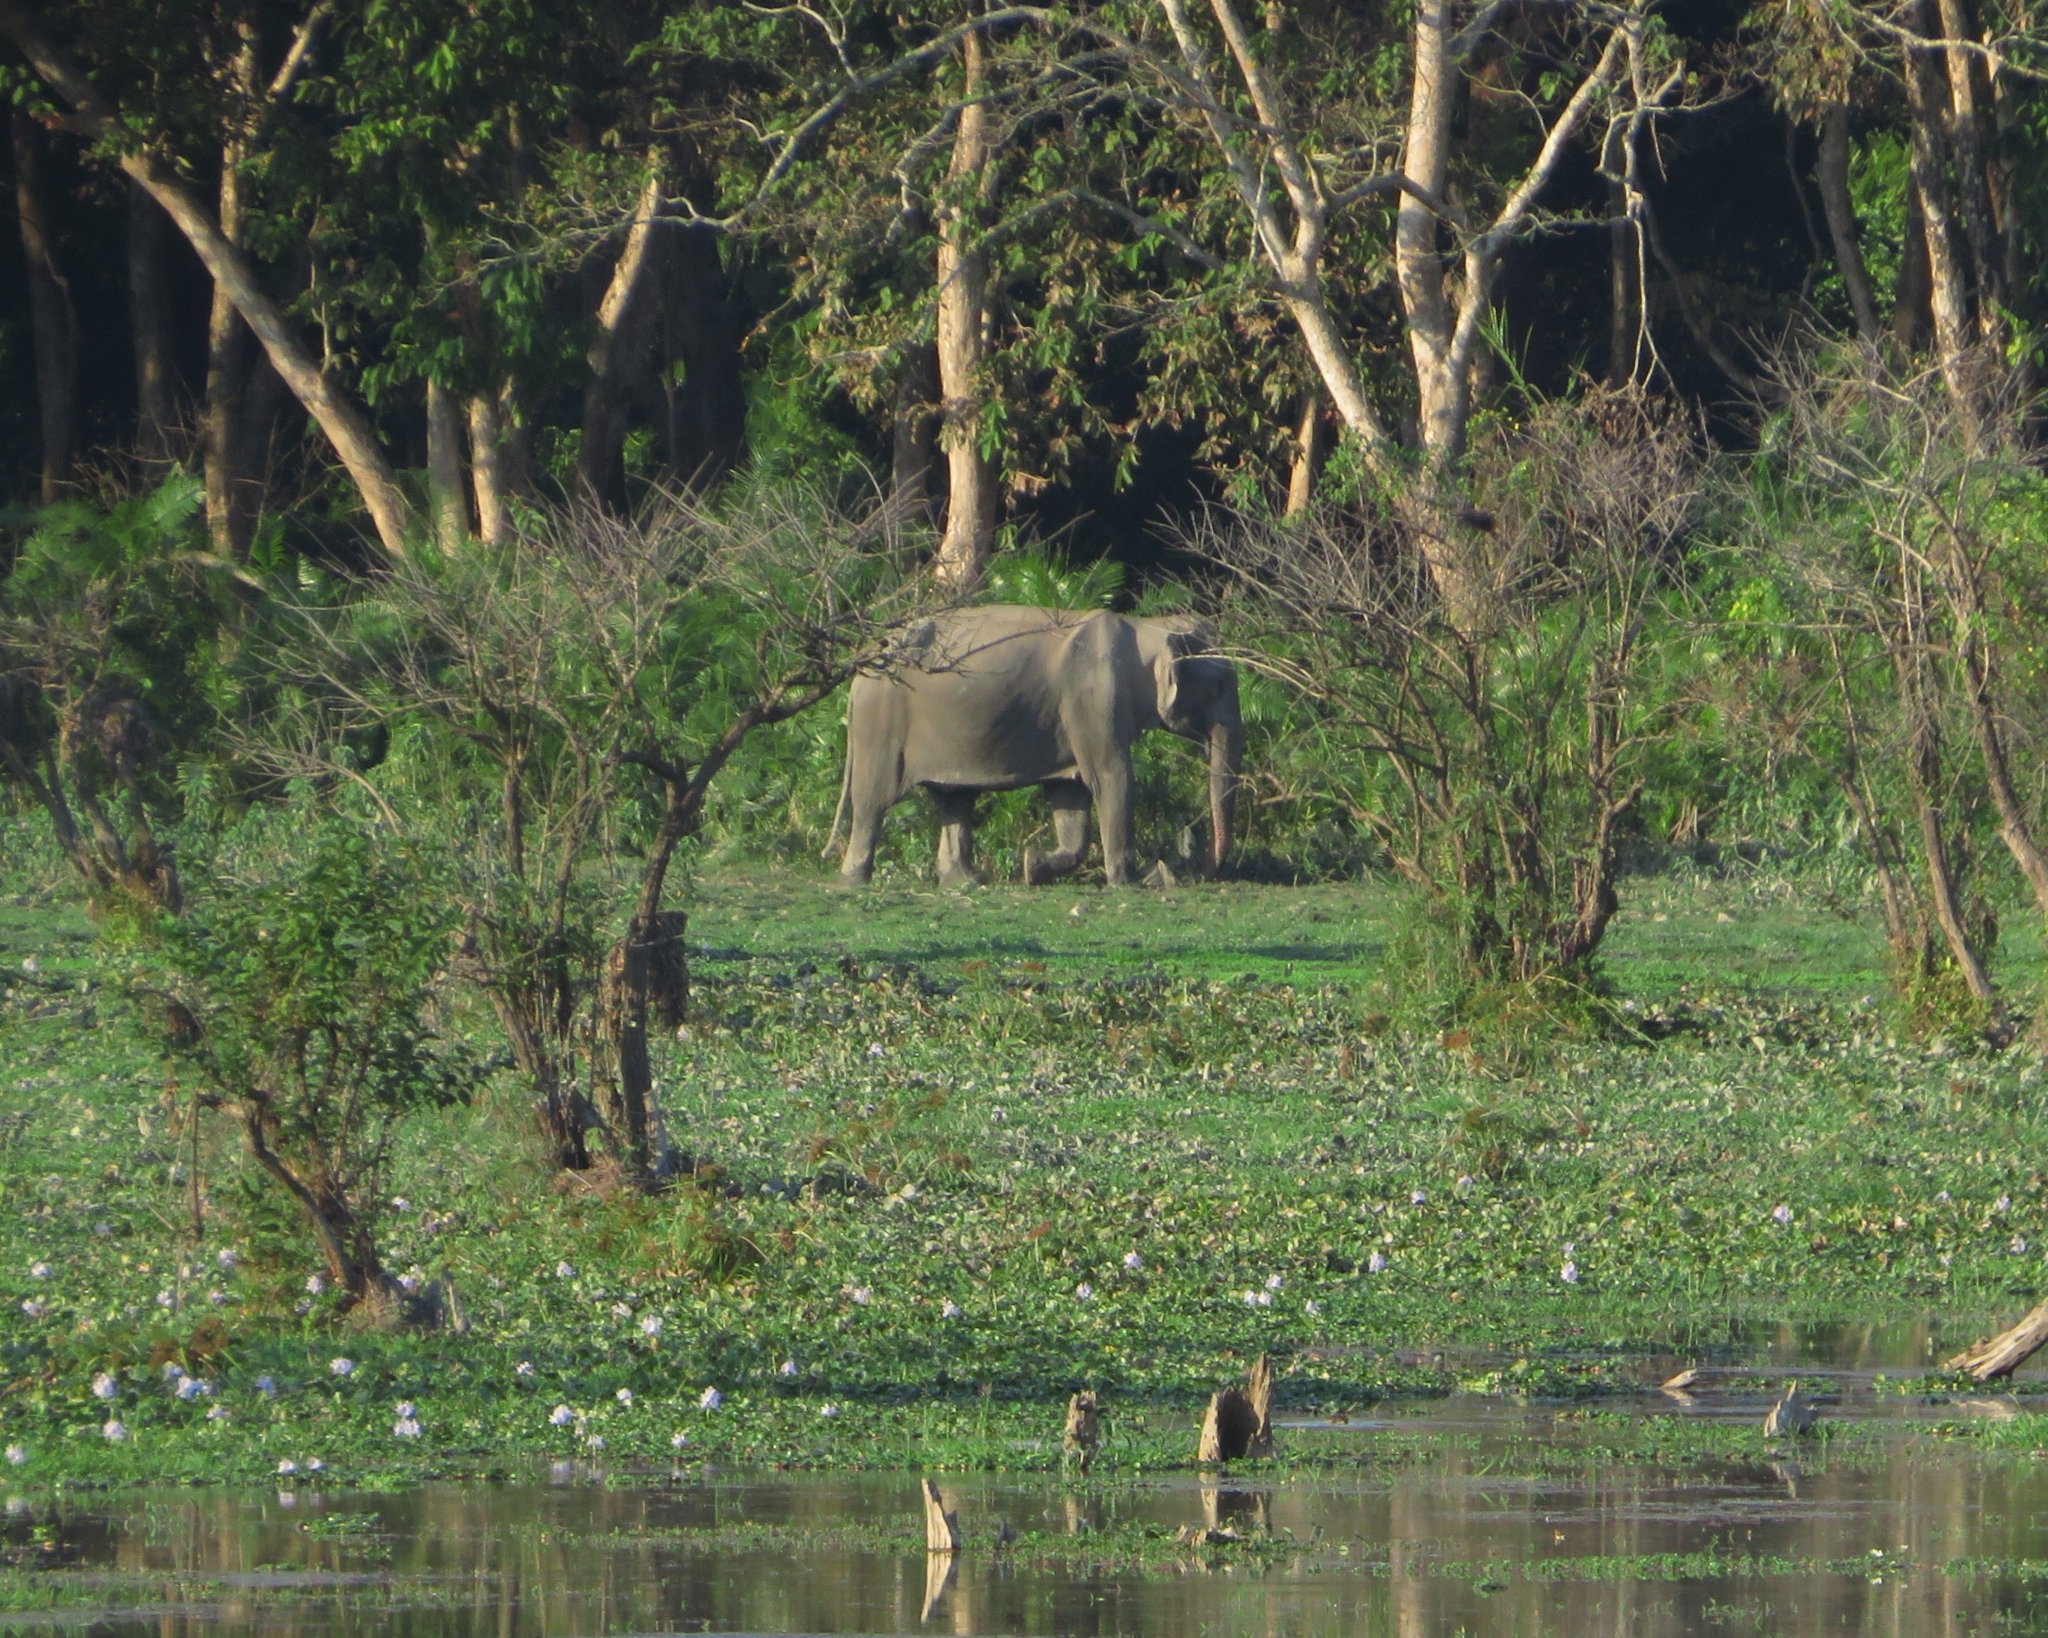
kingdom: Animalia
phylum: Chordata
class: Mammalia
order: Proboscidea
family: Elephantidae
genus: Elephas
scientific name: Elephas maximus
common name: Asian elephant
